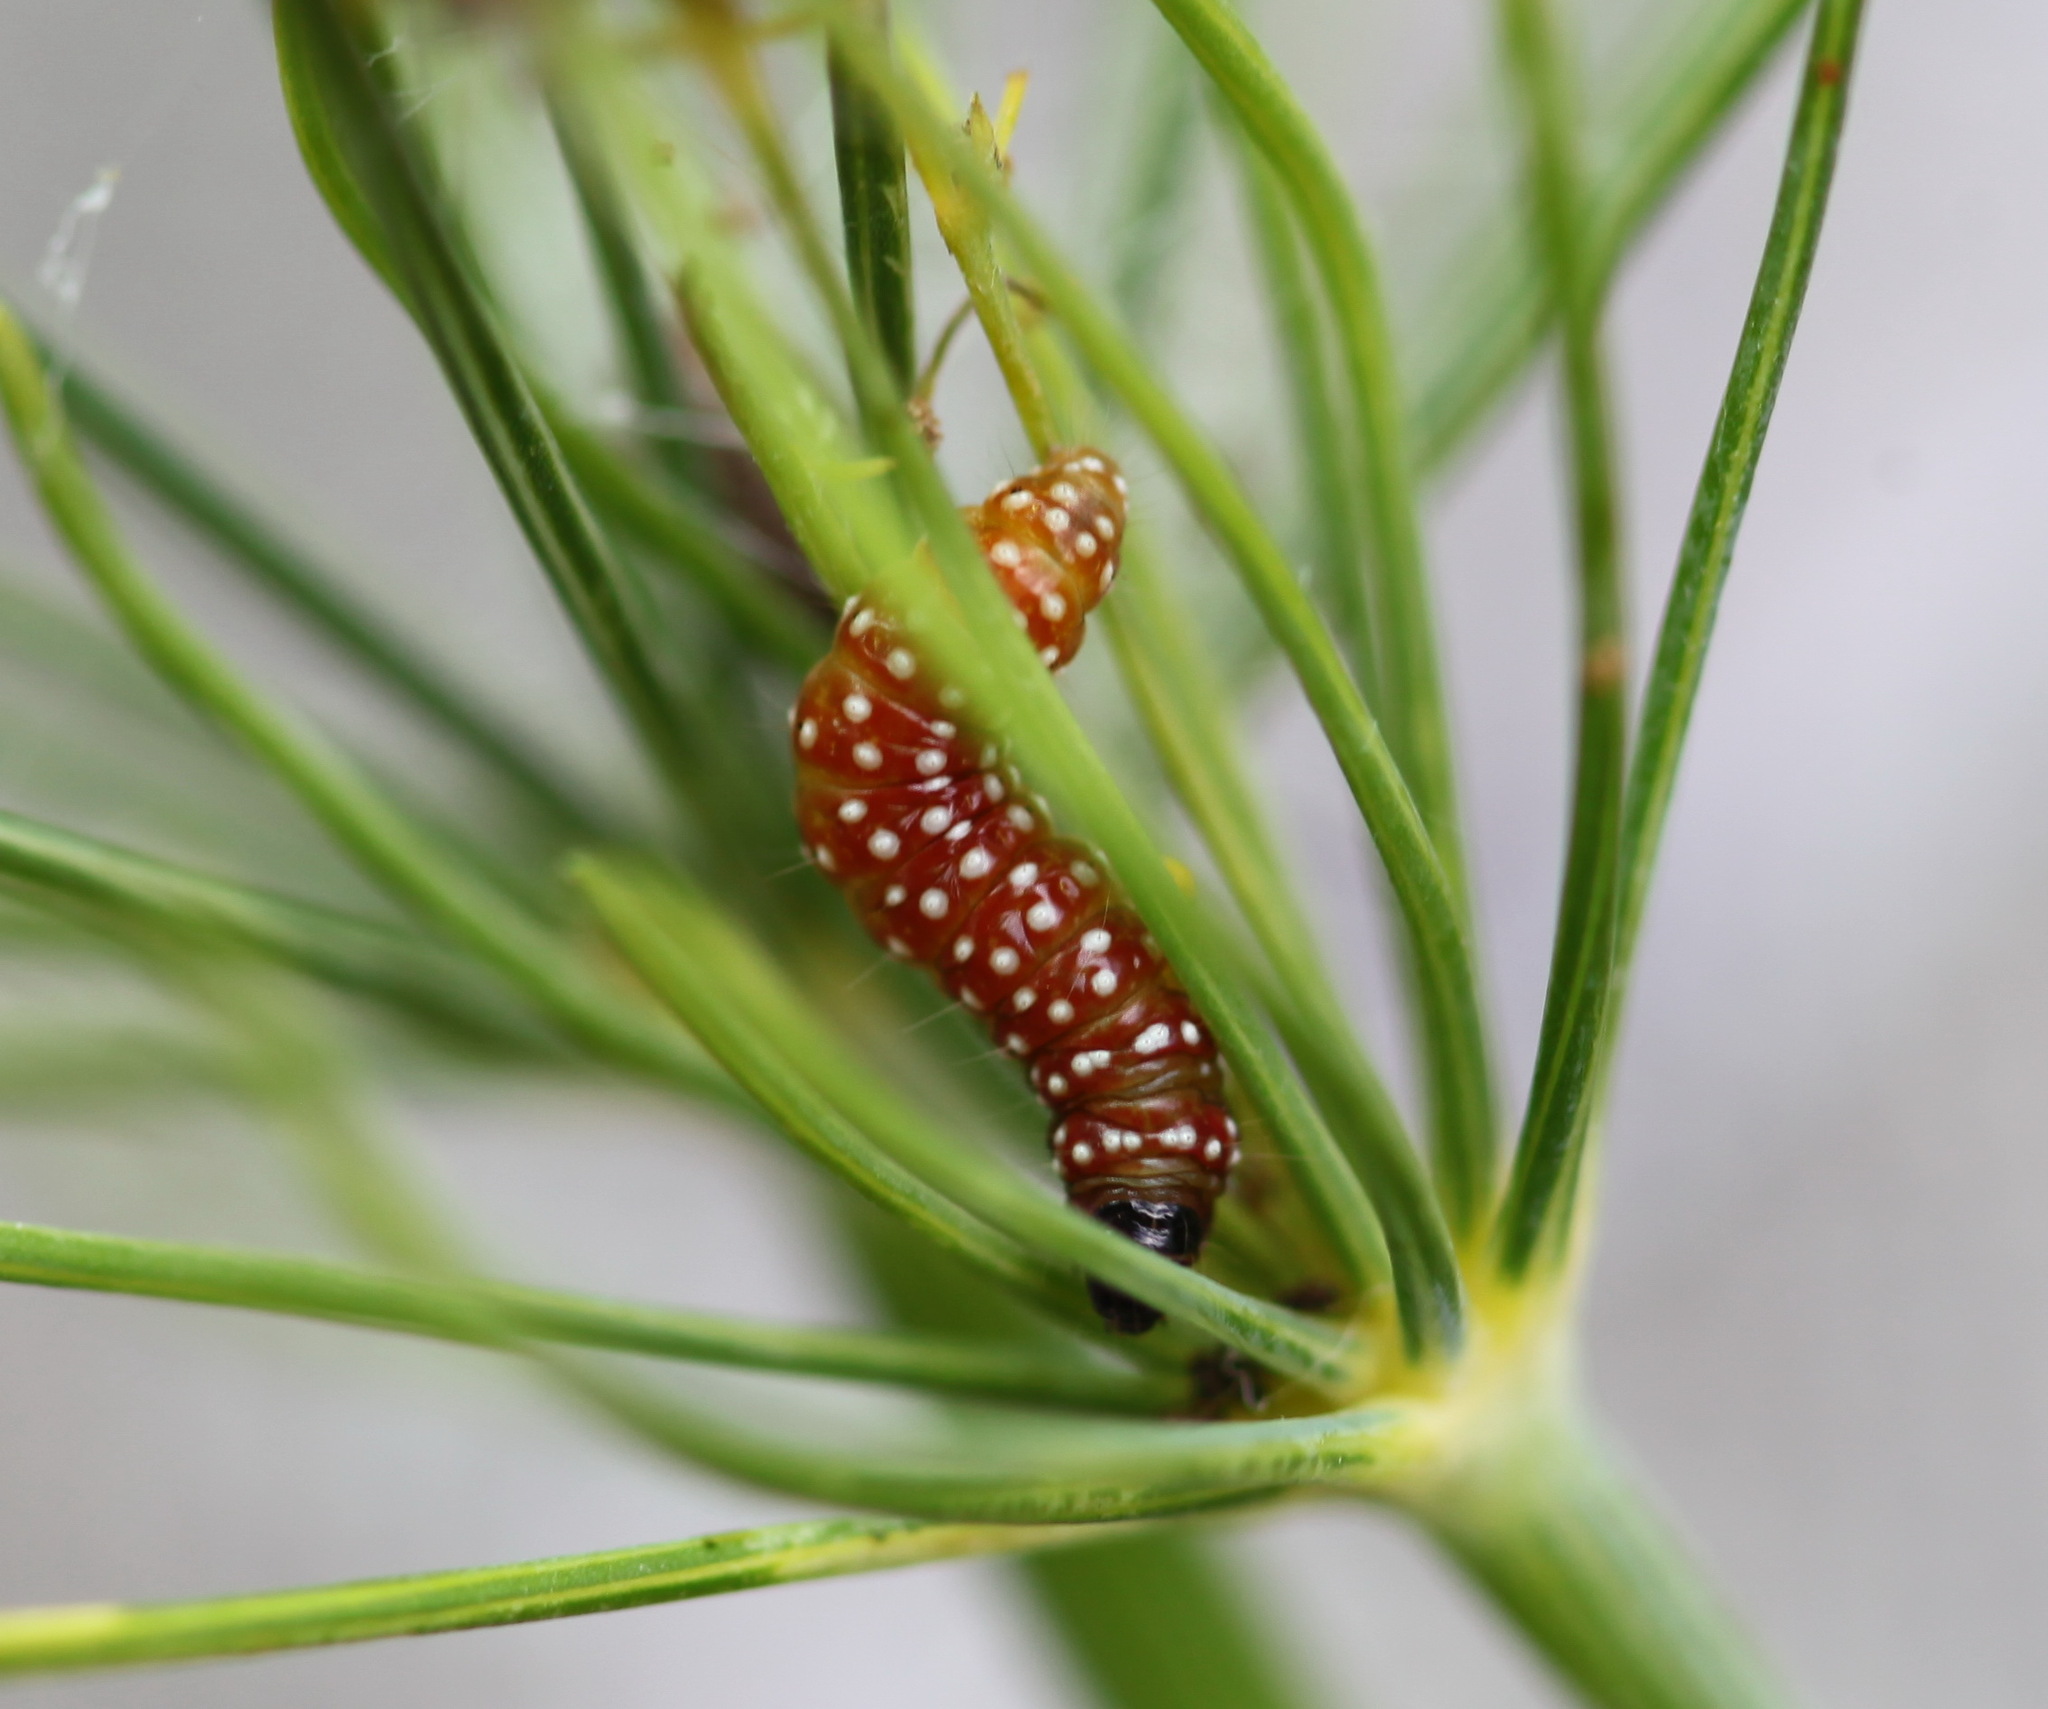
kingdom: Animalia
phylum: Arthropoda
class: Insecta
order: Lepidoptera
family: Depressariidae
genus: Depressaria
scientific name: Depressaria depressana
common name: Lost flat-body
